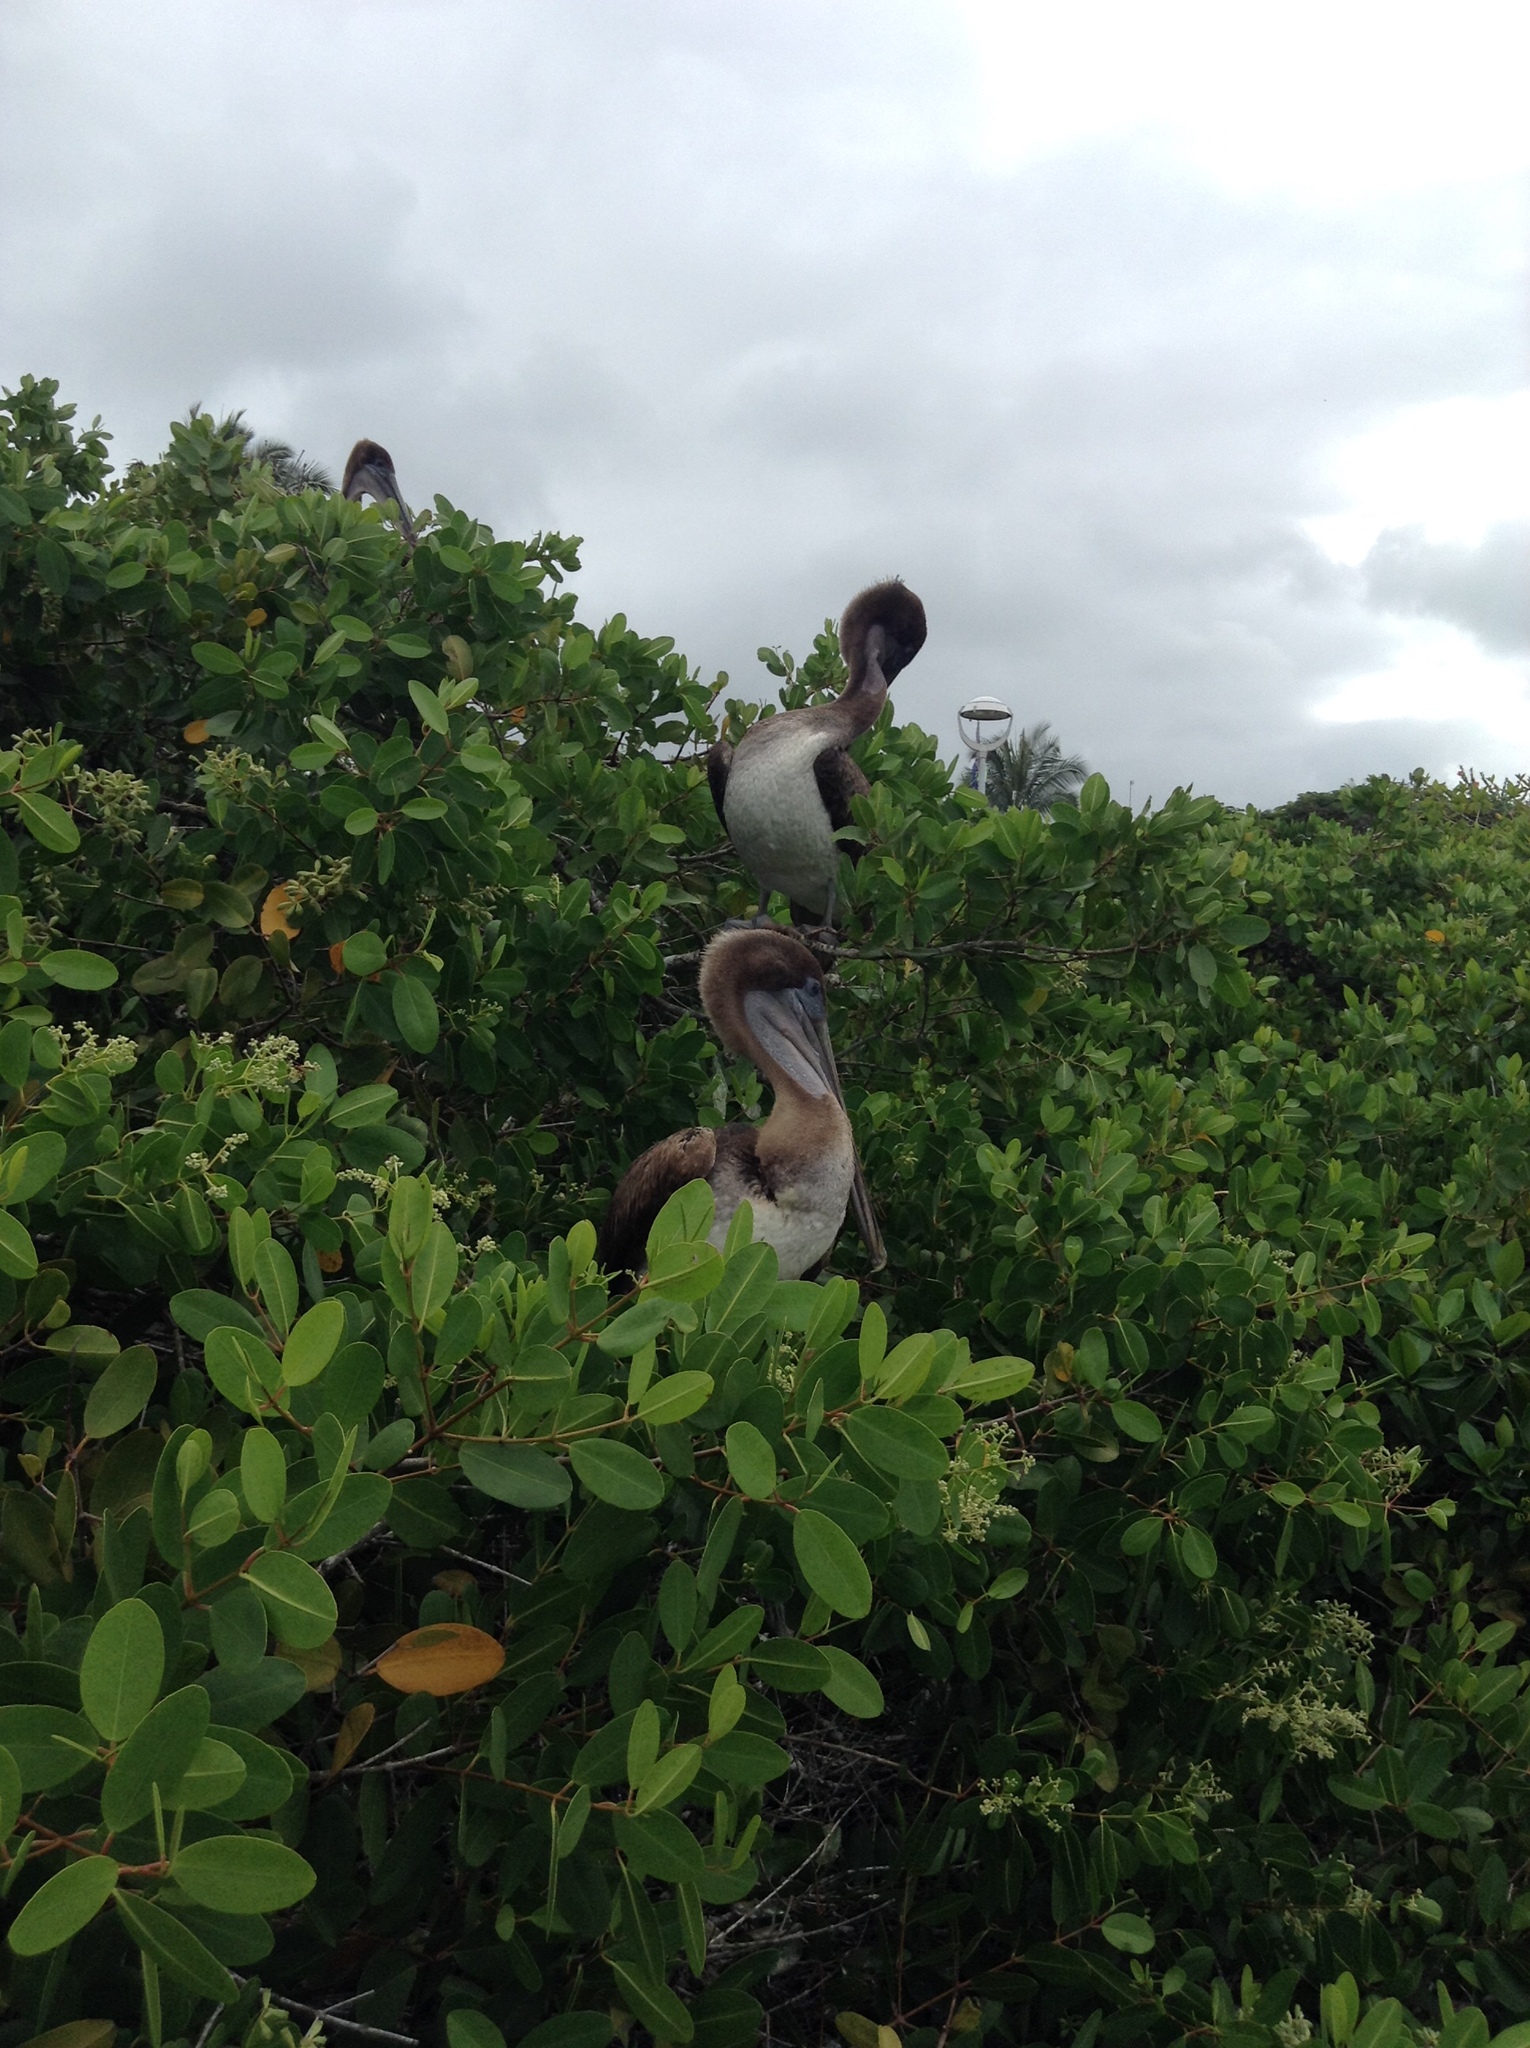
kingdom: Animalia
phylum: Chordata
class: Aves
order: Pelecaniformes
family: Pelecanidae
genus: Pelecanus
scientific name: Pelecanus occidentalis
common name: Brown pelican
